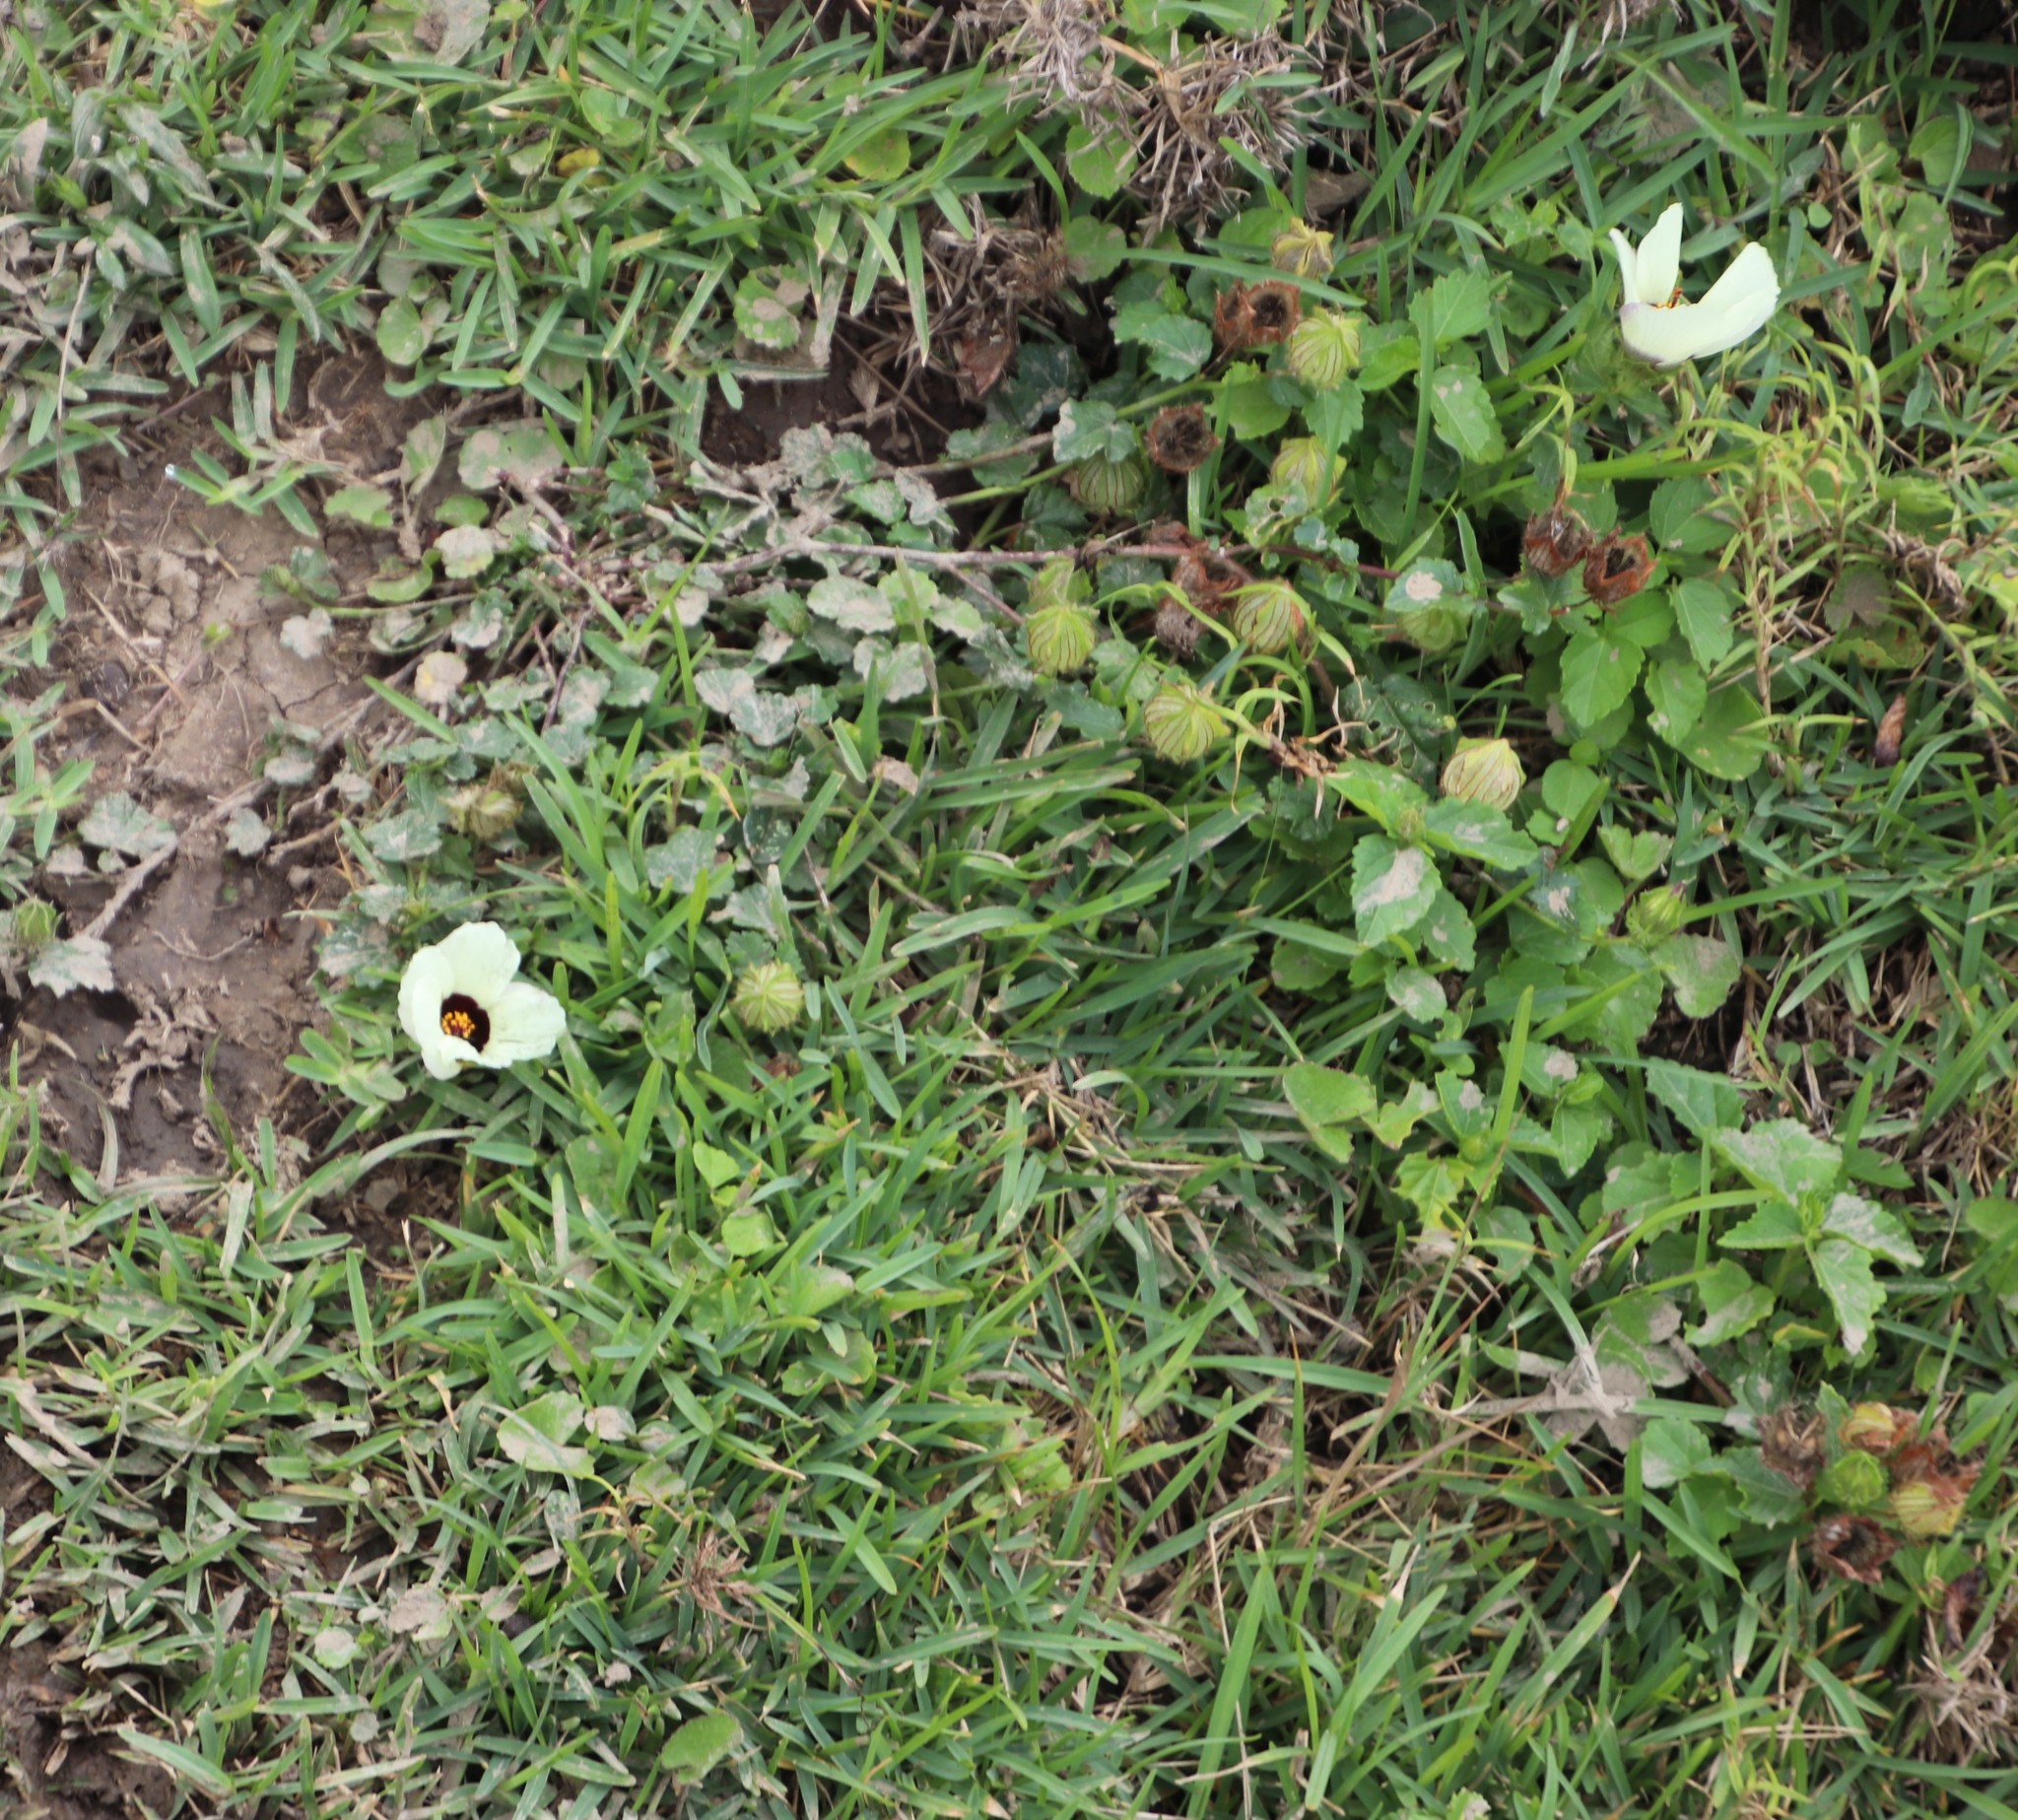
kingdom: Plantae
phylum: Tracheophyta
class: Magnoliopsida
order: Malvales
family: Malvaceae
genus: Hibiscus
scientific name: Hibiscus trionum
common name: Bladder ketmia
